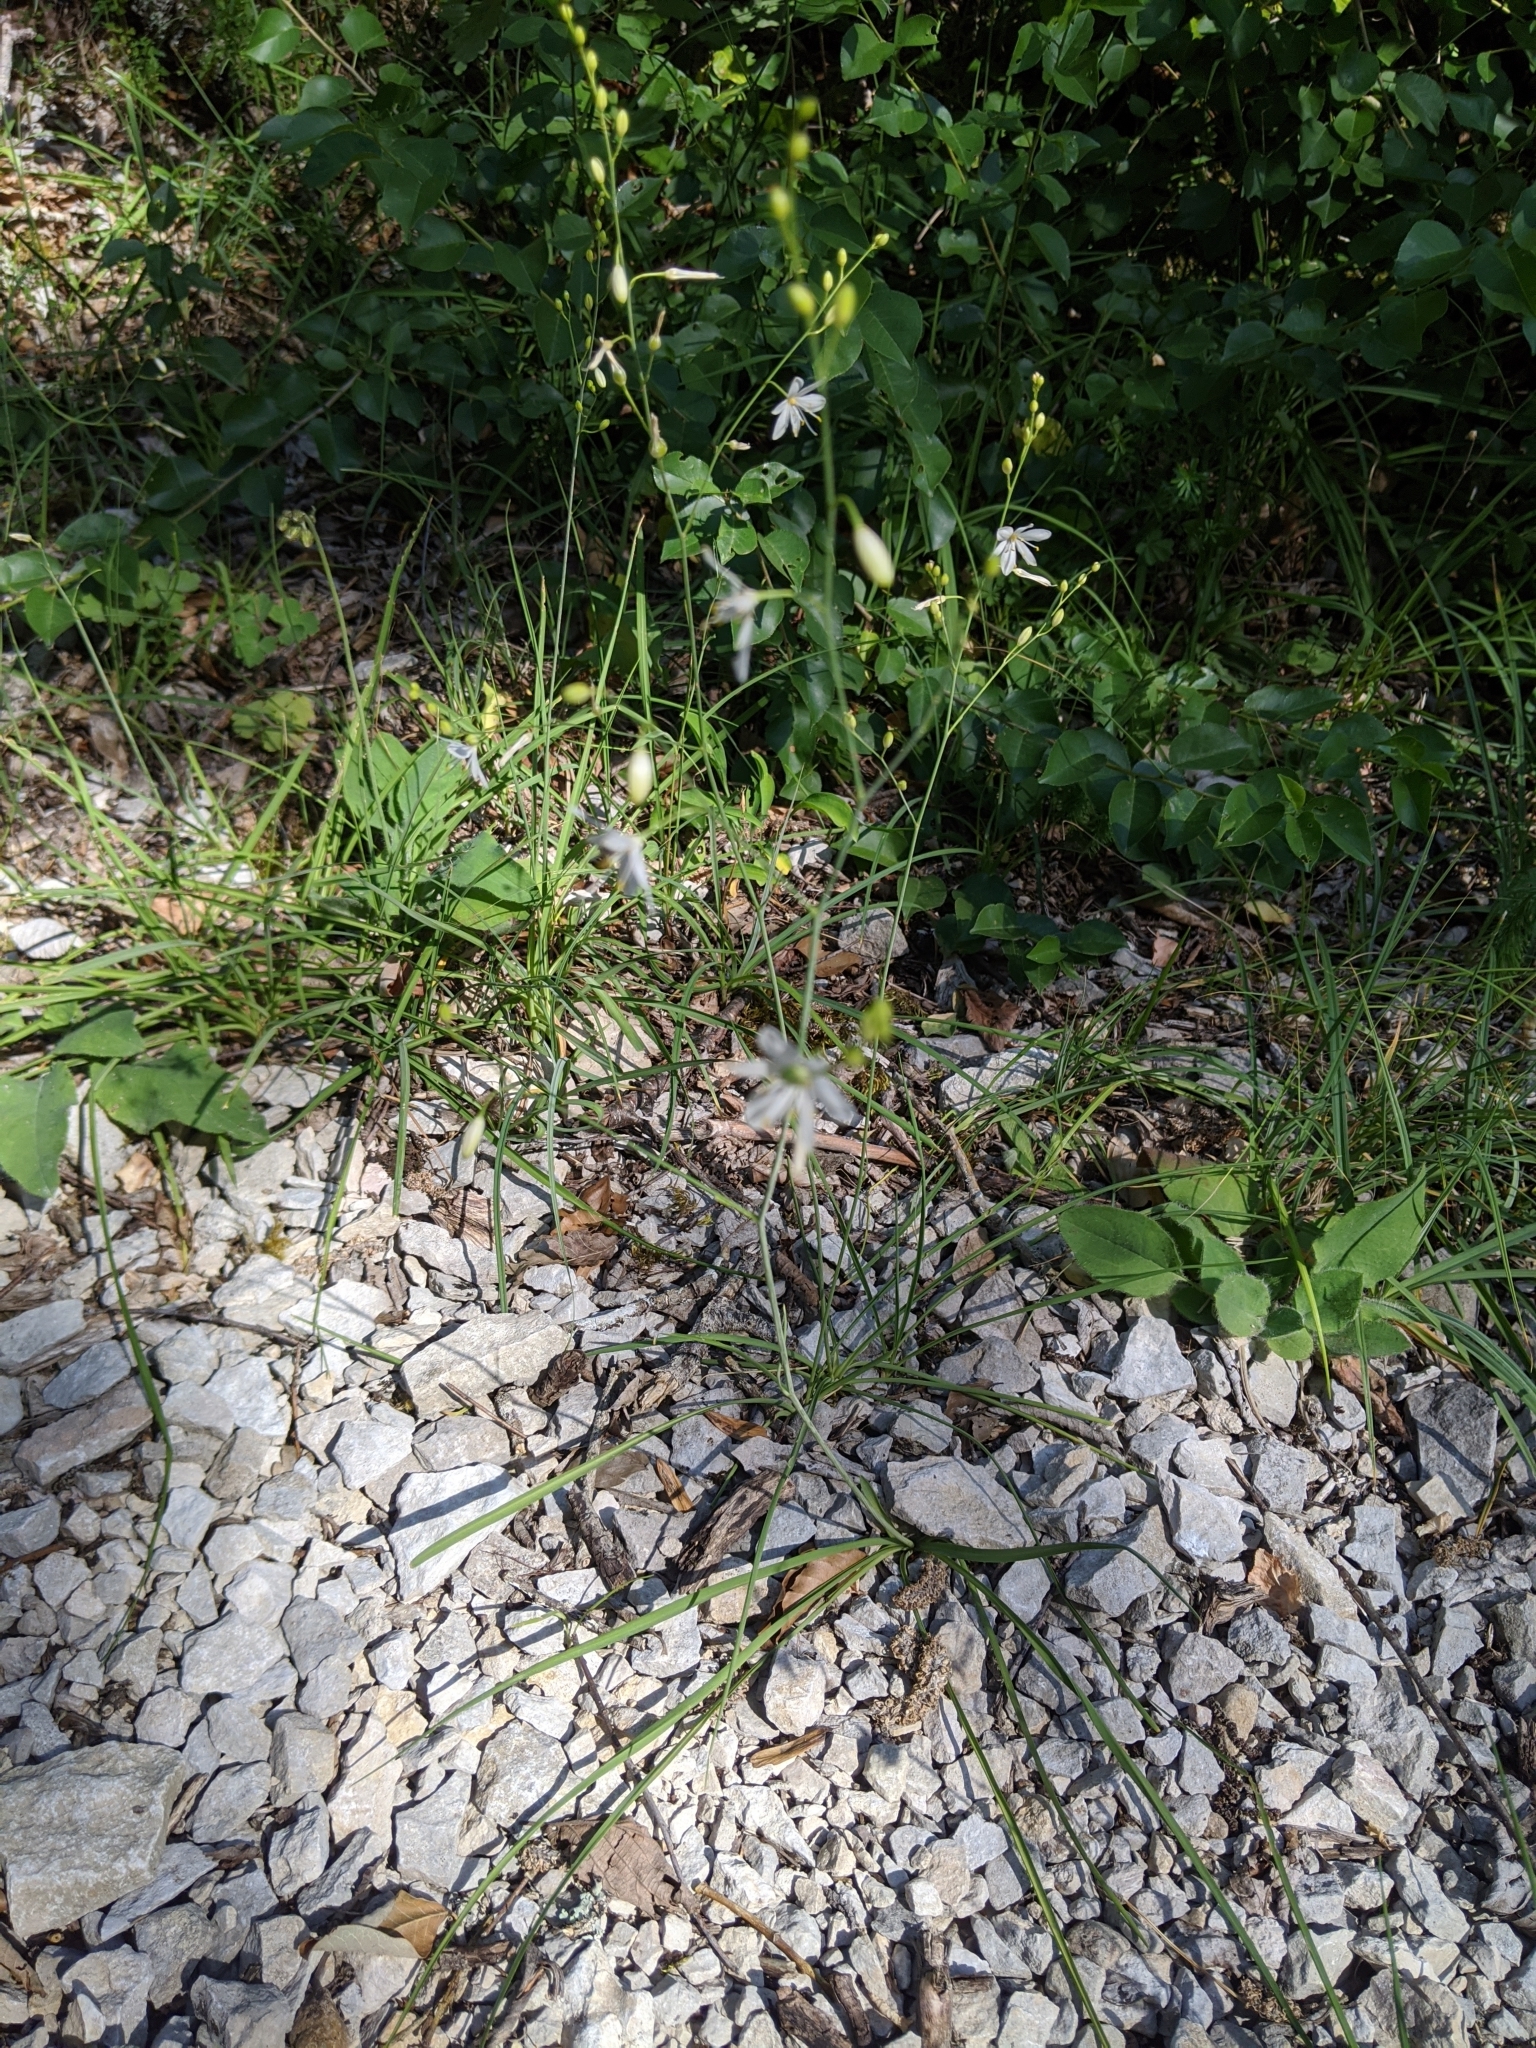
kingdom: Plantae
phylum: Tracheophyta
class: Liliopsida
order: Asparagales
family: Asparagaceae
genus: Anthericum
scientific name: Anthericum ramosum
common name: Branched st. bernard's-lily
